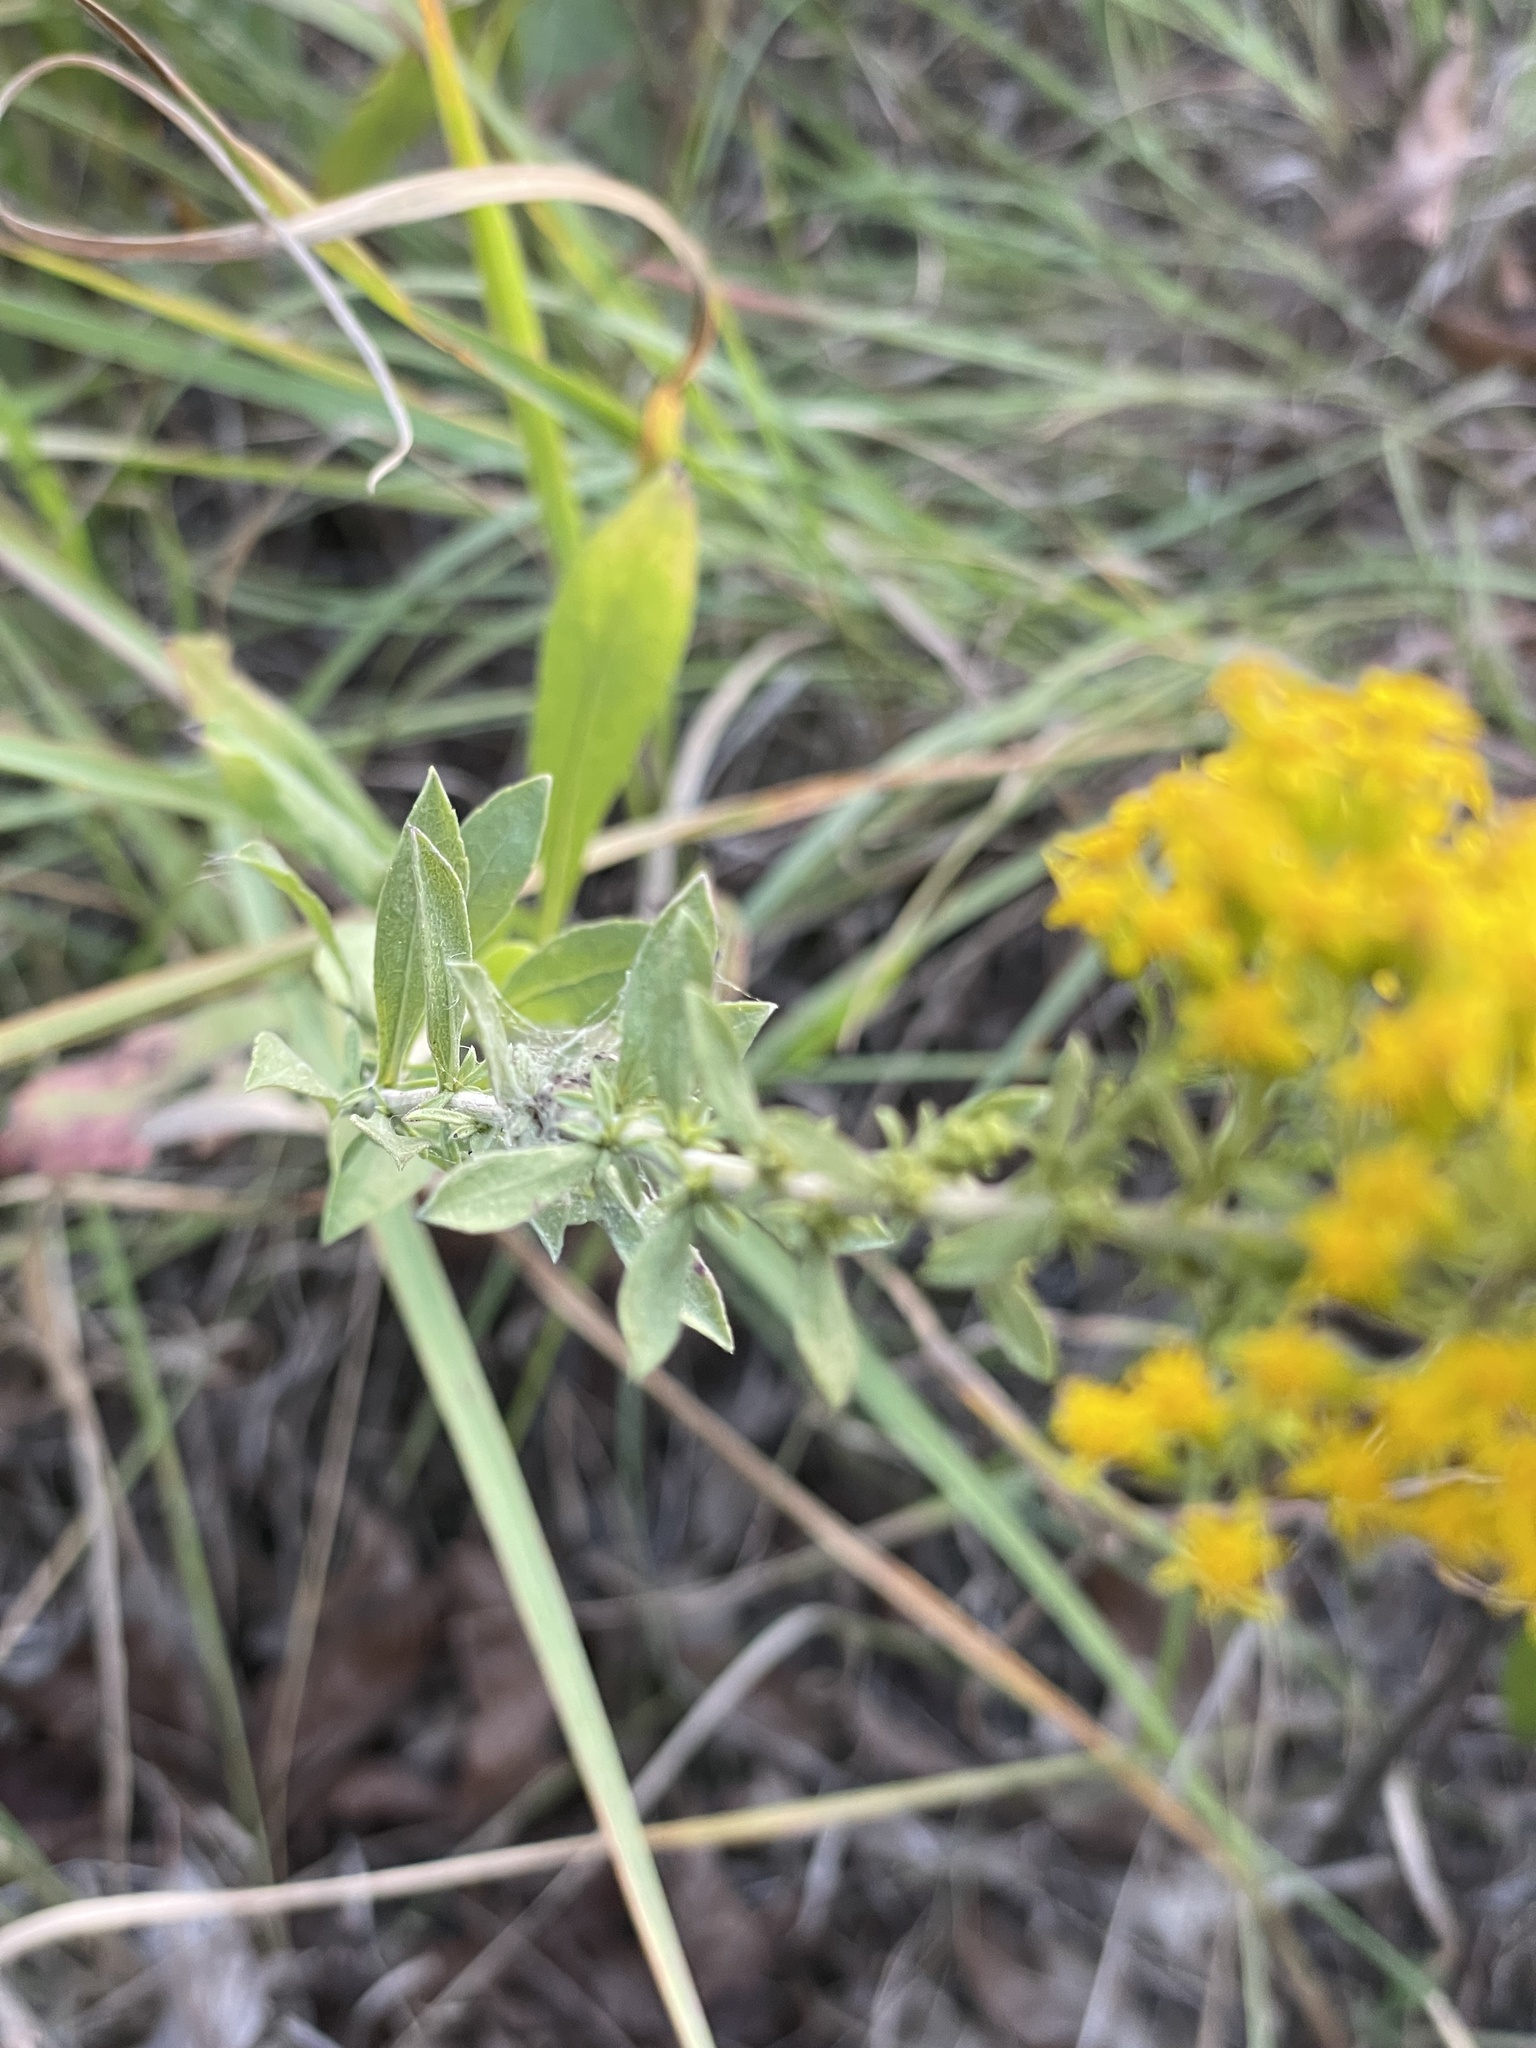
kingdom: Plantae
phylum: Tracheophyta
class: Magnoliopsida
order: Asterales
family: Asteraceae
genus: Solidago
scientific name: Solidago nemoralis
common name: Grey goldenrod
